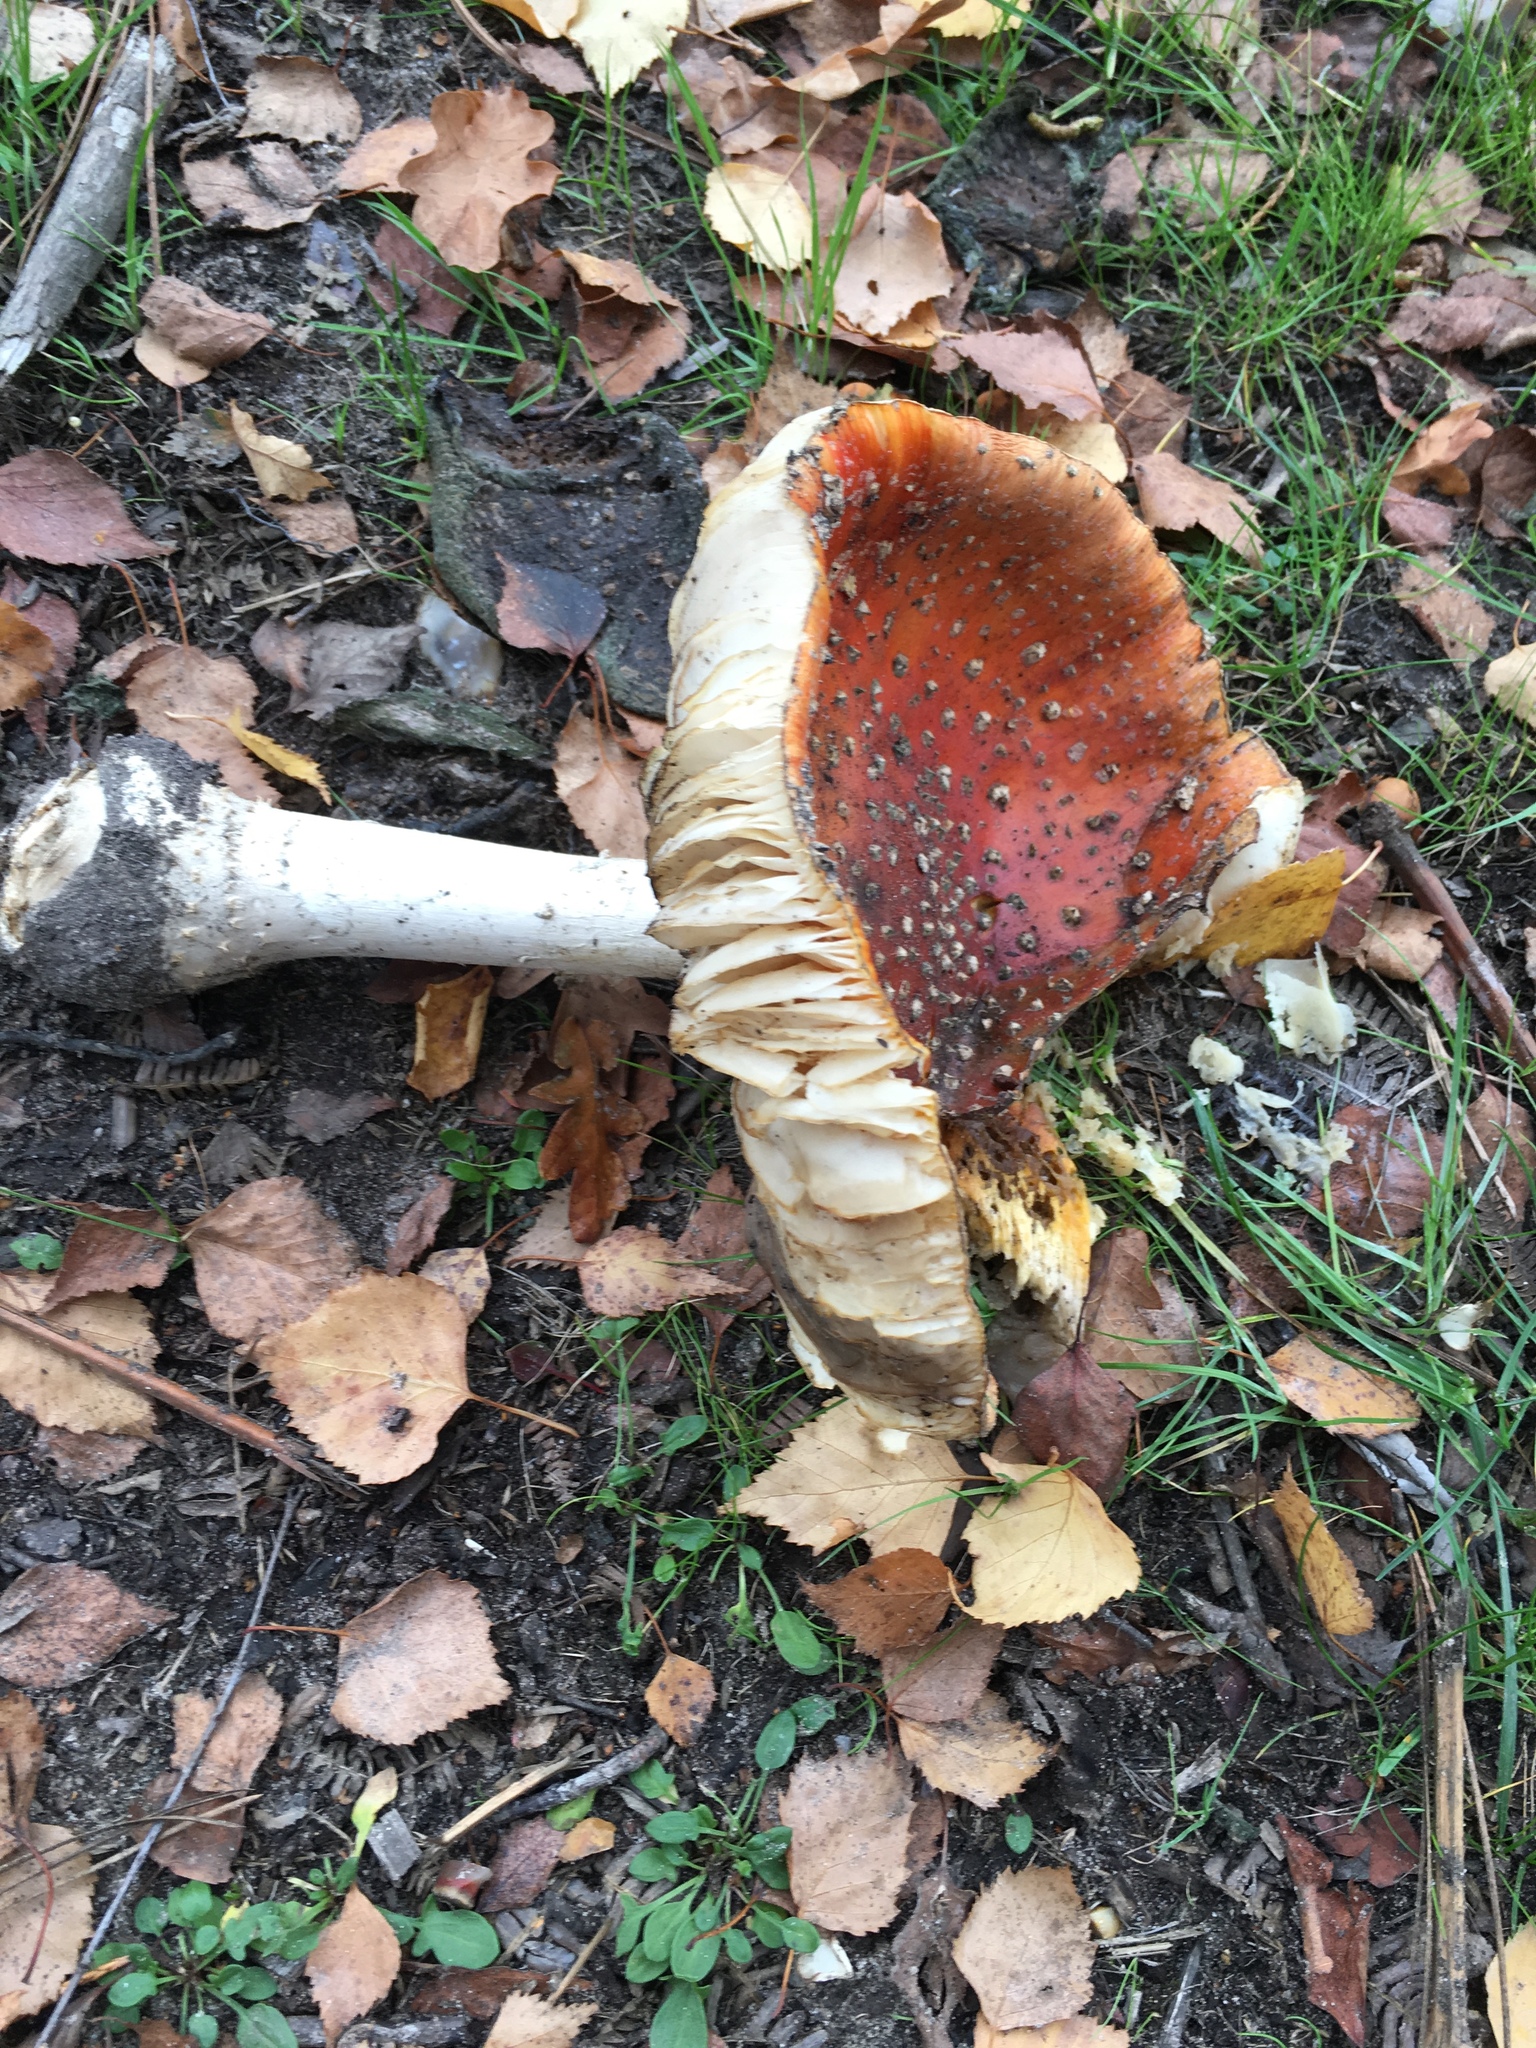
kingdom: Fungi
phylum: Basidiomycota
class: Agaricomycetes
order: Agaricales
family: Amanitaceae
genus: Amanita
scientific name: Amanita muscaria
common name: Fly agaric
